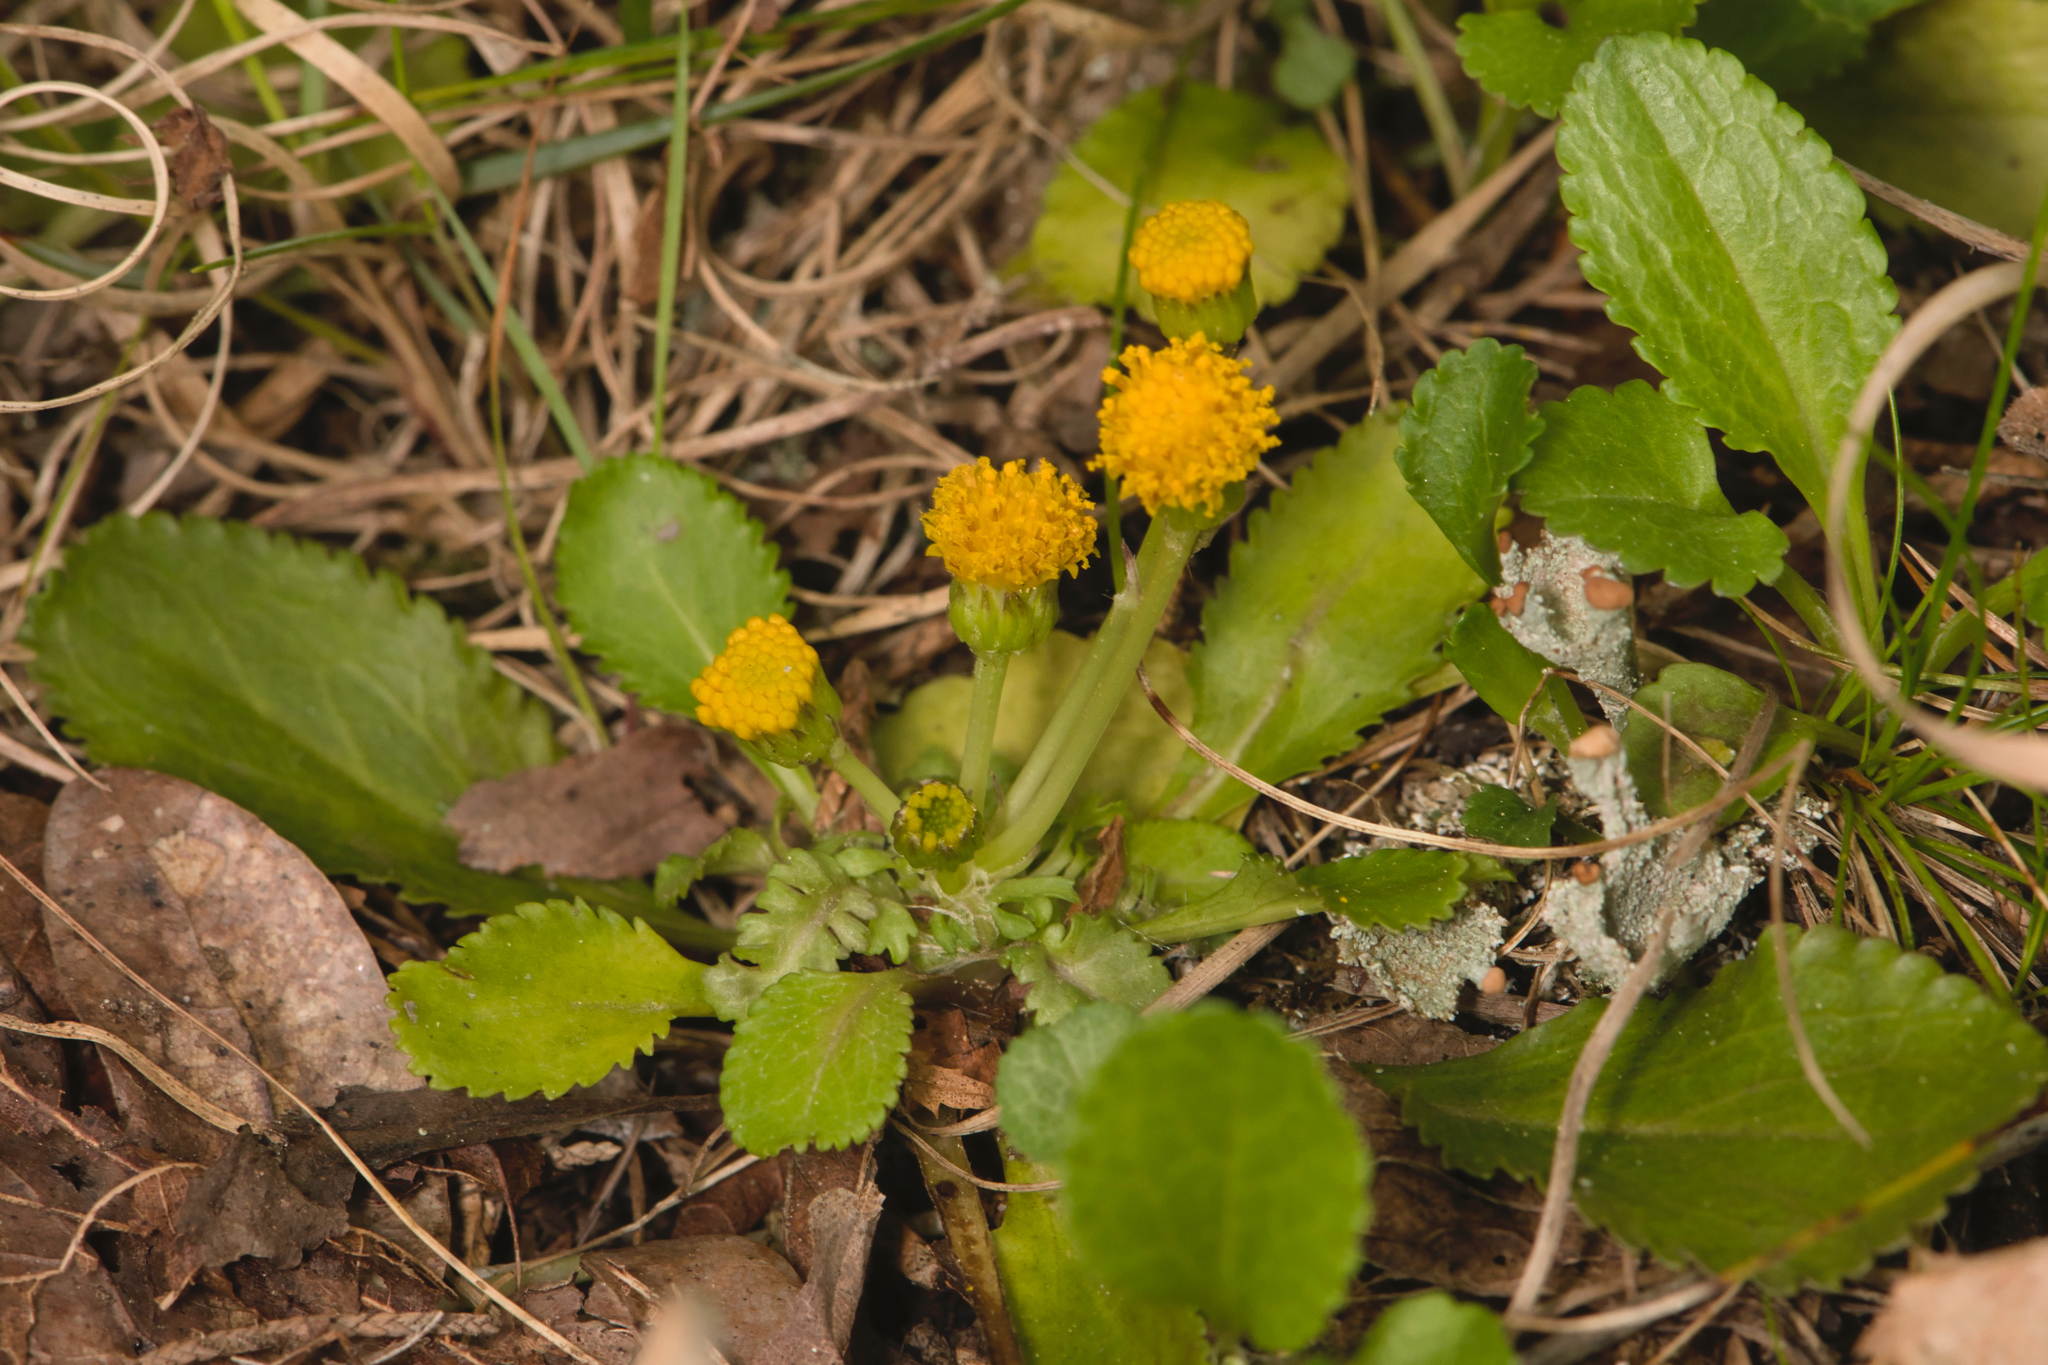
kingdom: Plantae
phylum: Tracheophyta
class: Magnoliopsida
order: Asterales
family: Asteraceae
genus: Packera
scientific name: Packera obovata
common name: Round-leaf ragwort
